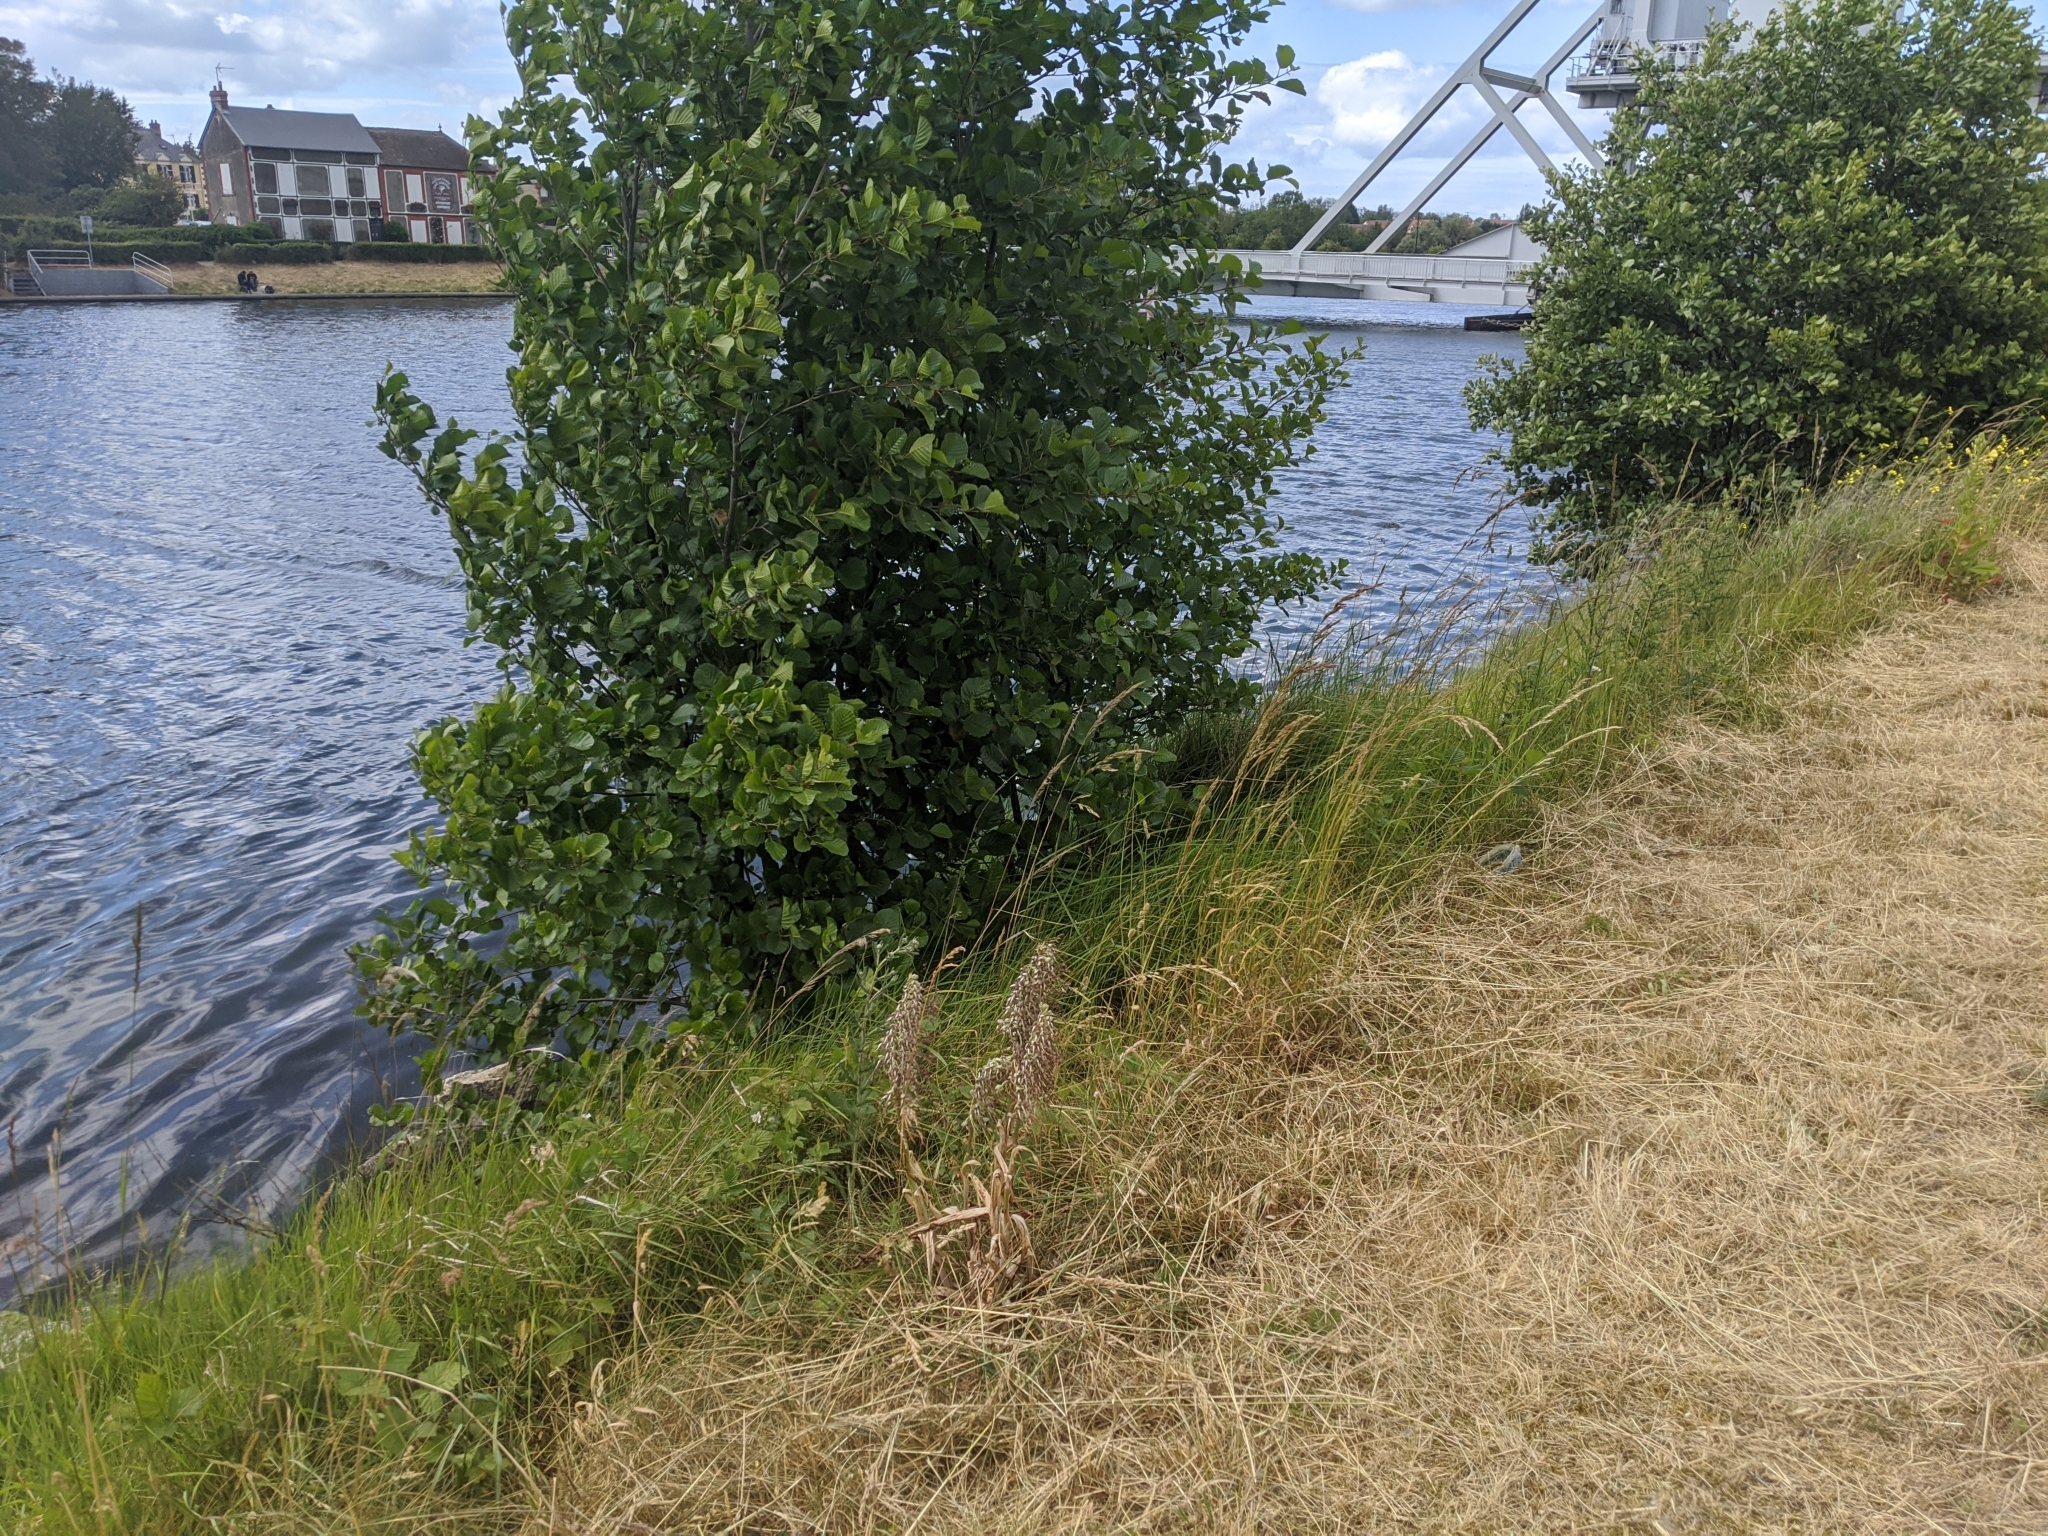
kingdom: Plantae
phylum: Tracheophyta
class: Liliopsida
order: Asparagales
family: Orchidaceae
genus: Himantoglossum
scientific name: Himantoglossum hircinum
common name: Lizard orchid
